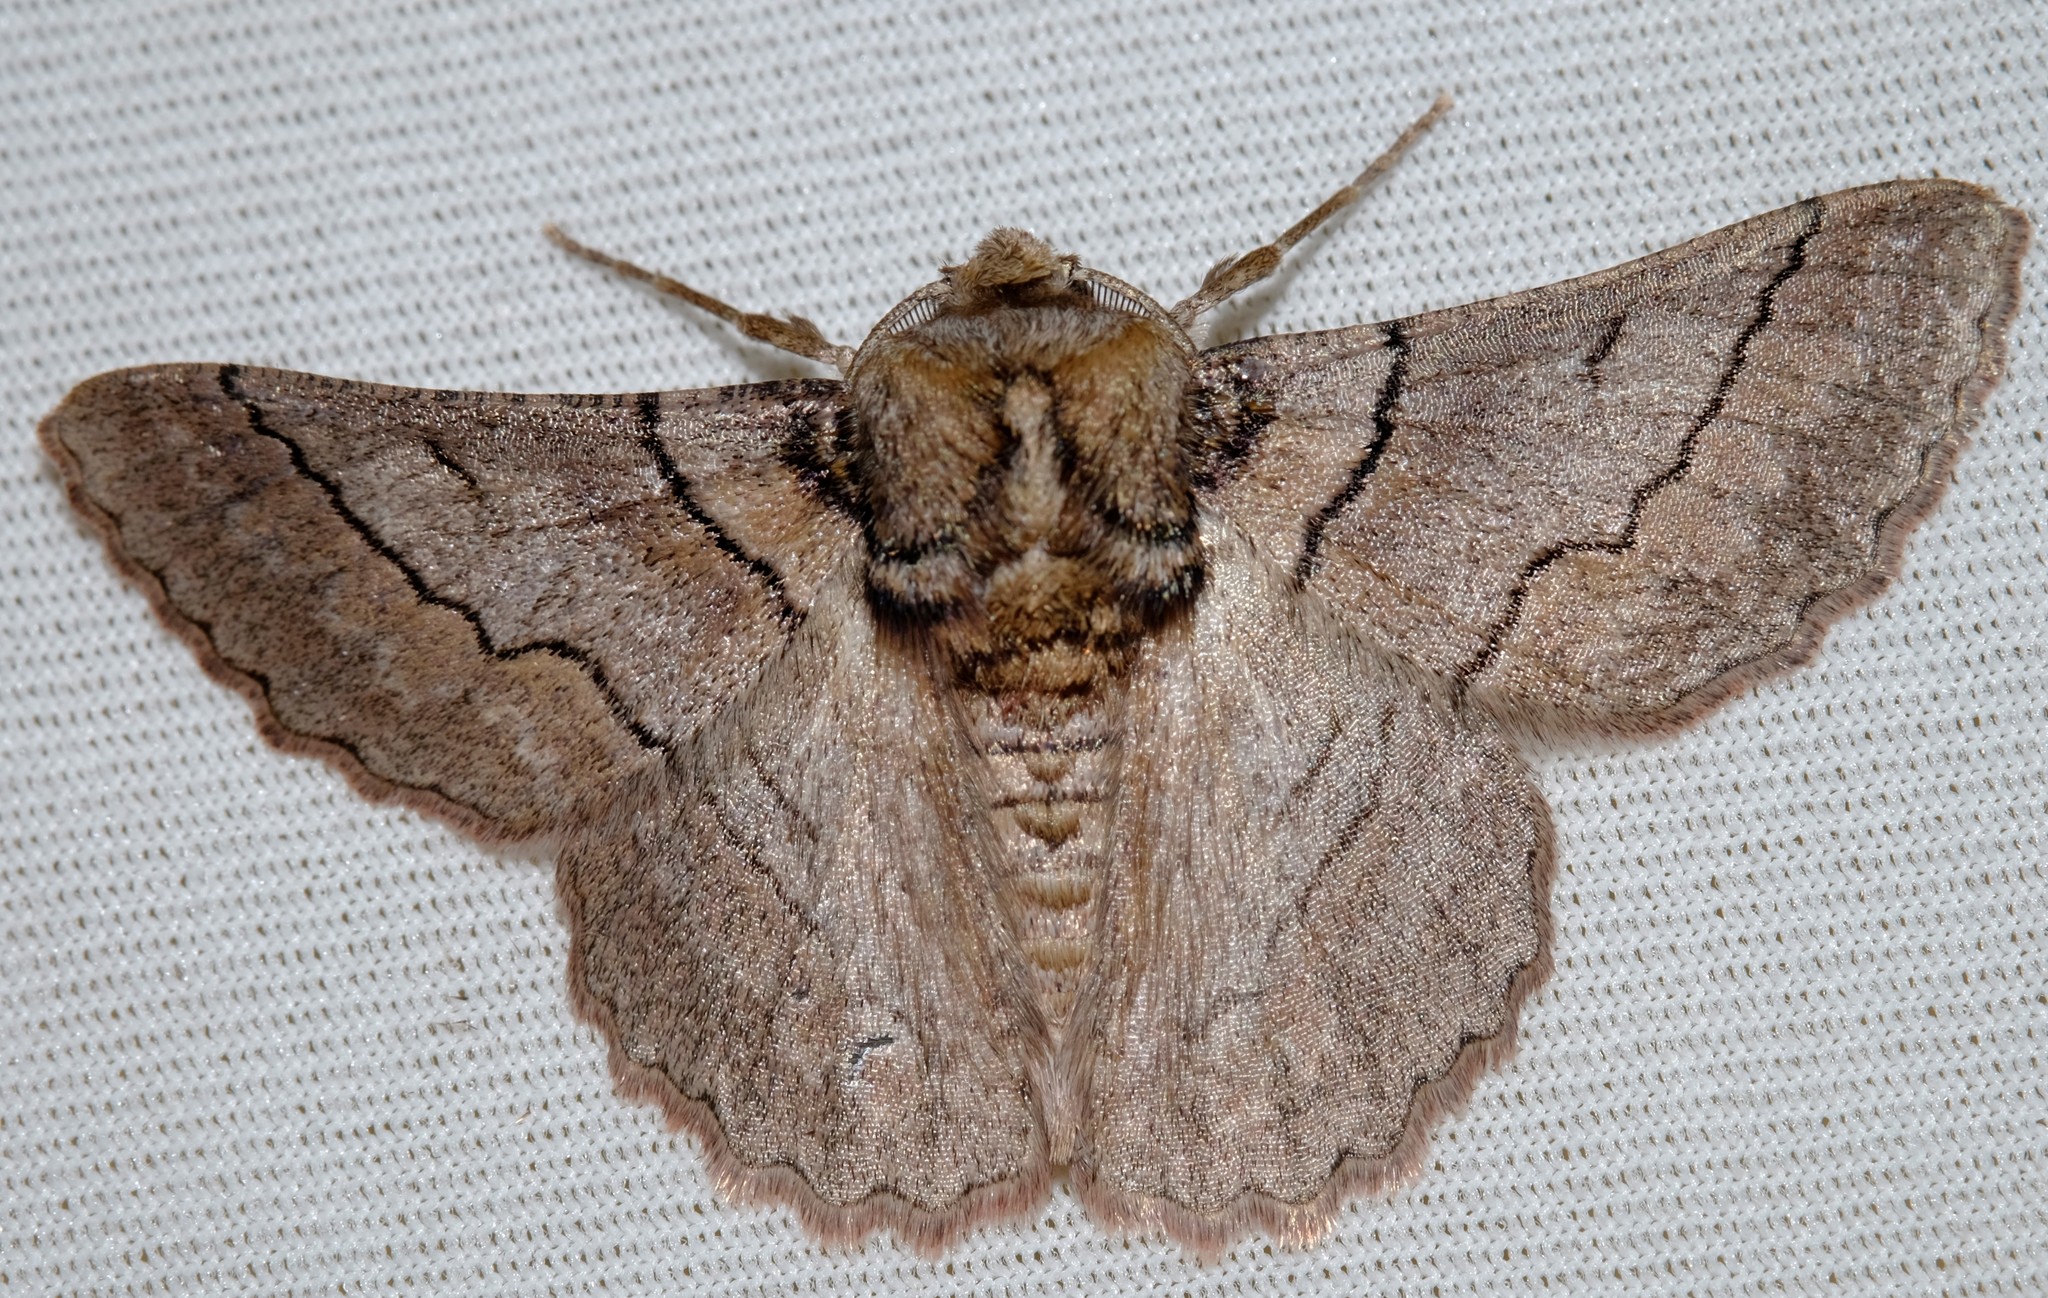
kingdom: Animalia
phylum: Arthropoda
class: Insecta
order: Lepidoptera
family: Geometridae
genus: Hypobapta
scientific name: Hypobapta tachyhalotaria
